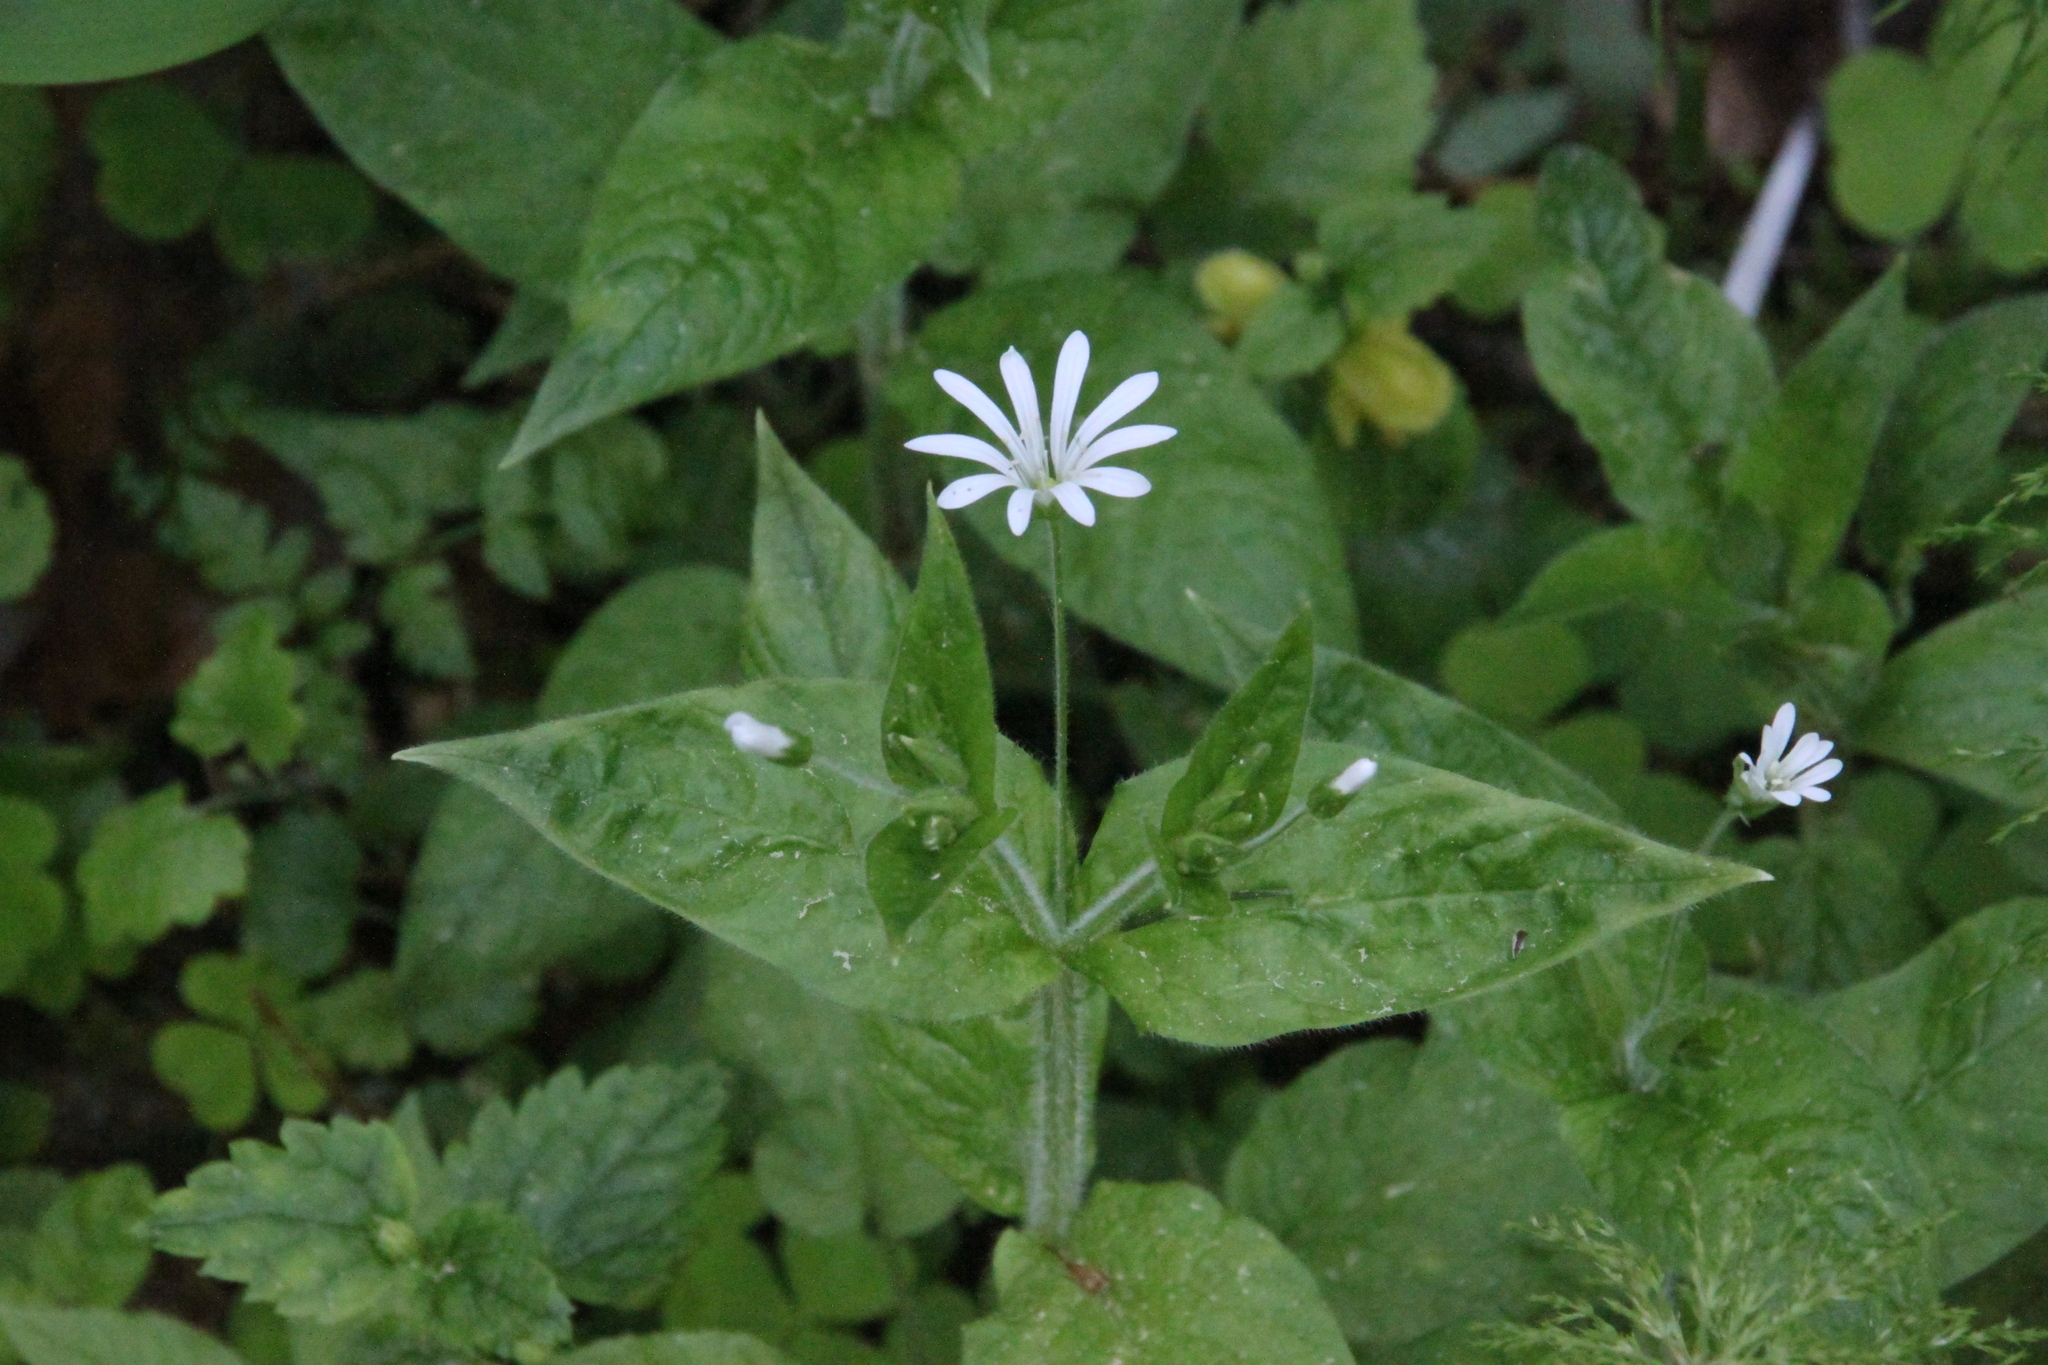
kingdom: Plantae
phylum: Tracheophyta
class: Magnoliopsida
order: Caryophyllales
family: Caryophyllaceae
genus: Stellaria
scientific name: Stellaria nemorum
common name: Wood stitchwort
